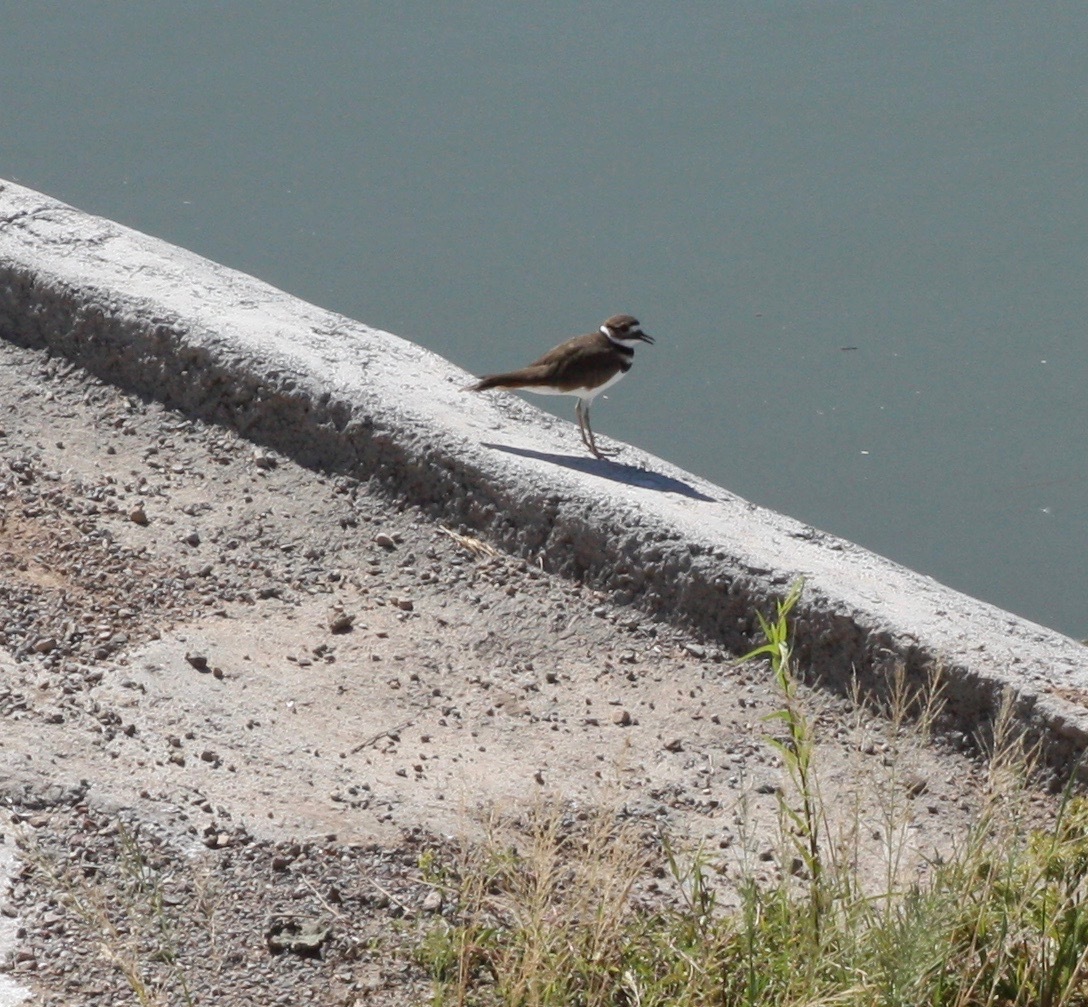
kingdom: Animalia
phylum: Chordata
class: Aves
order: Charadriiformes
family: Charadriidae
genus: Charadrius
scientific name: Charadrius vociferus
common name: Killdeer
